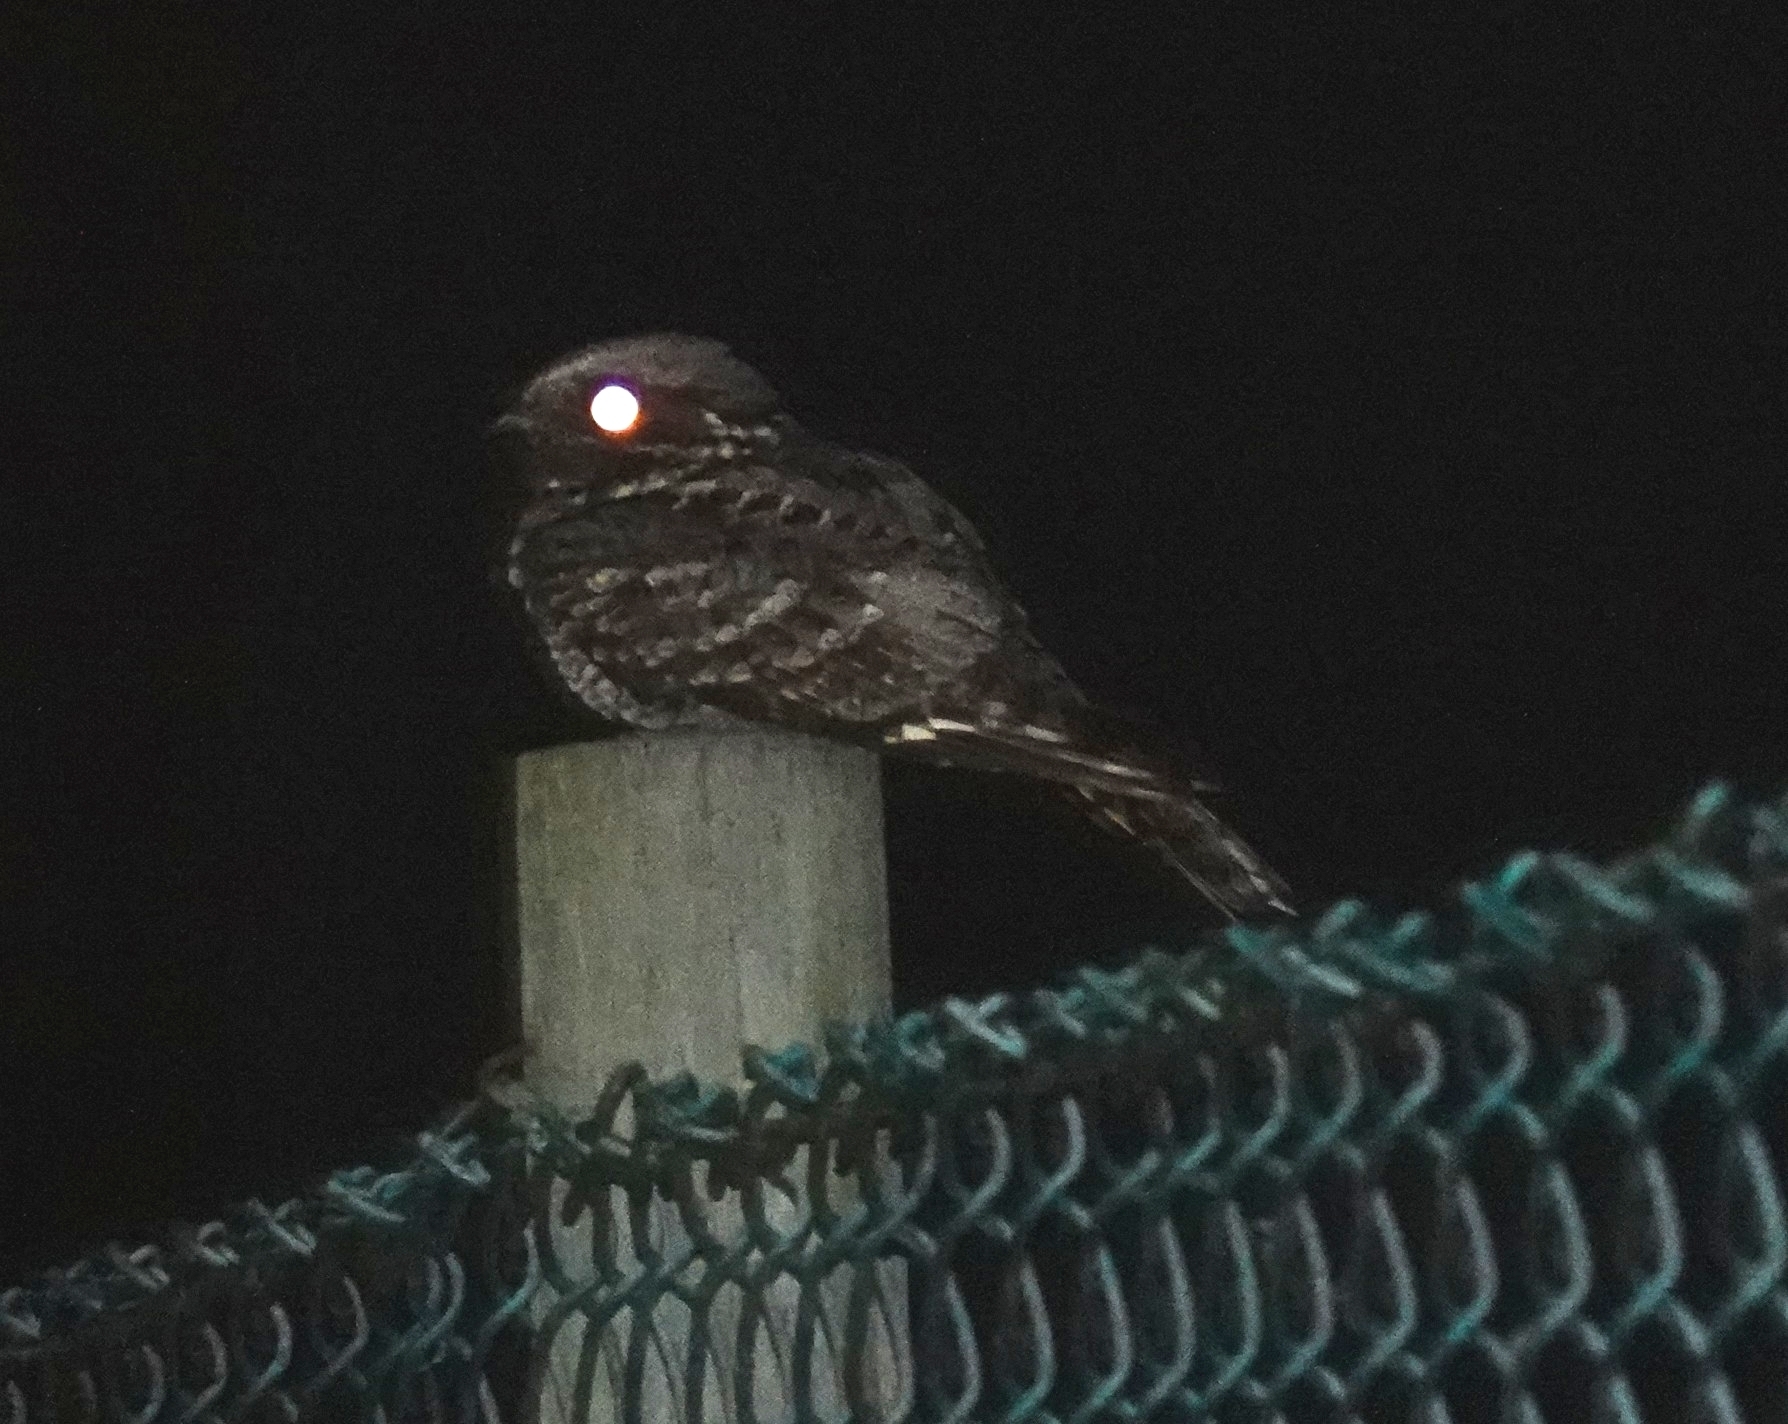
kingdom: Animalia
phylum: Chordata
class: Aves
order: Caprimulgiformes
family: Caprimulgidae
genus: Caprimulgus
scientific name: Caprimulgus pectoralis
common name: Fiery-necked nightjar
